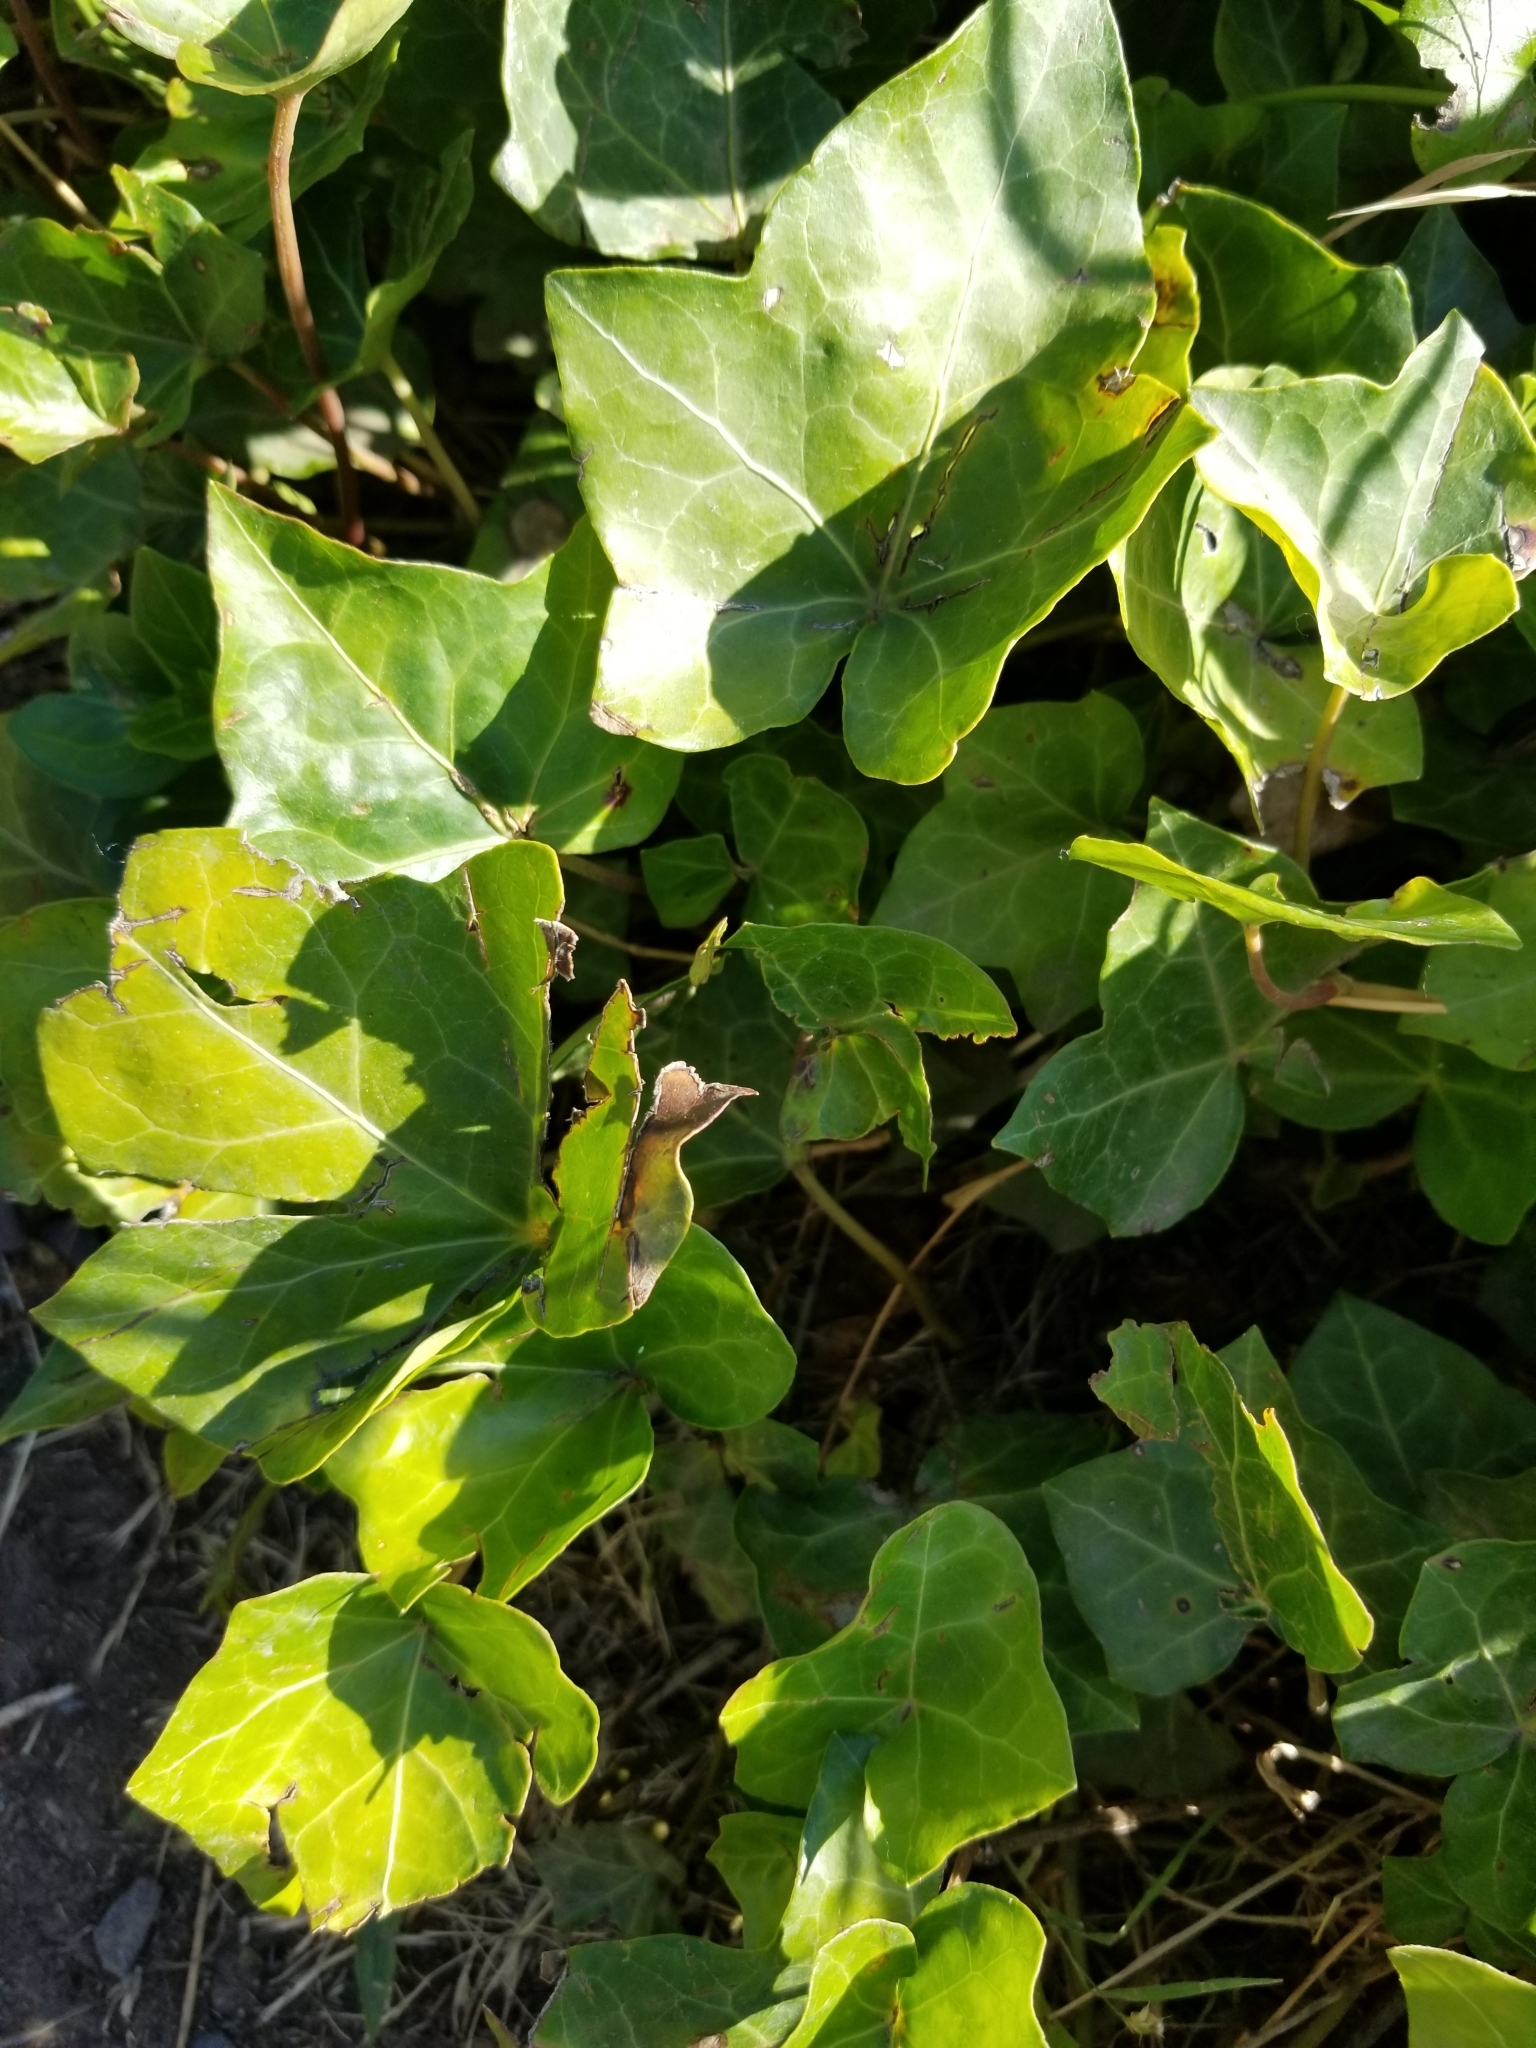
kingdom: Plantae
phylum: Tracheophyta
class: Magnoliopsida
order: Apiales
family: Araliaceae
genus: Hedera
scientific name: Hedera helix
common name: Ivy
